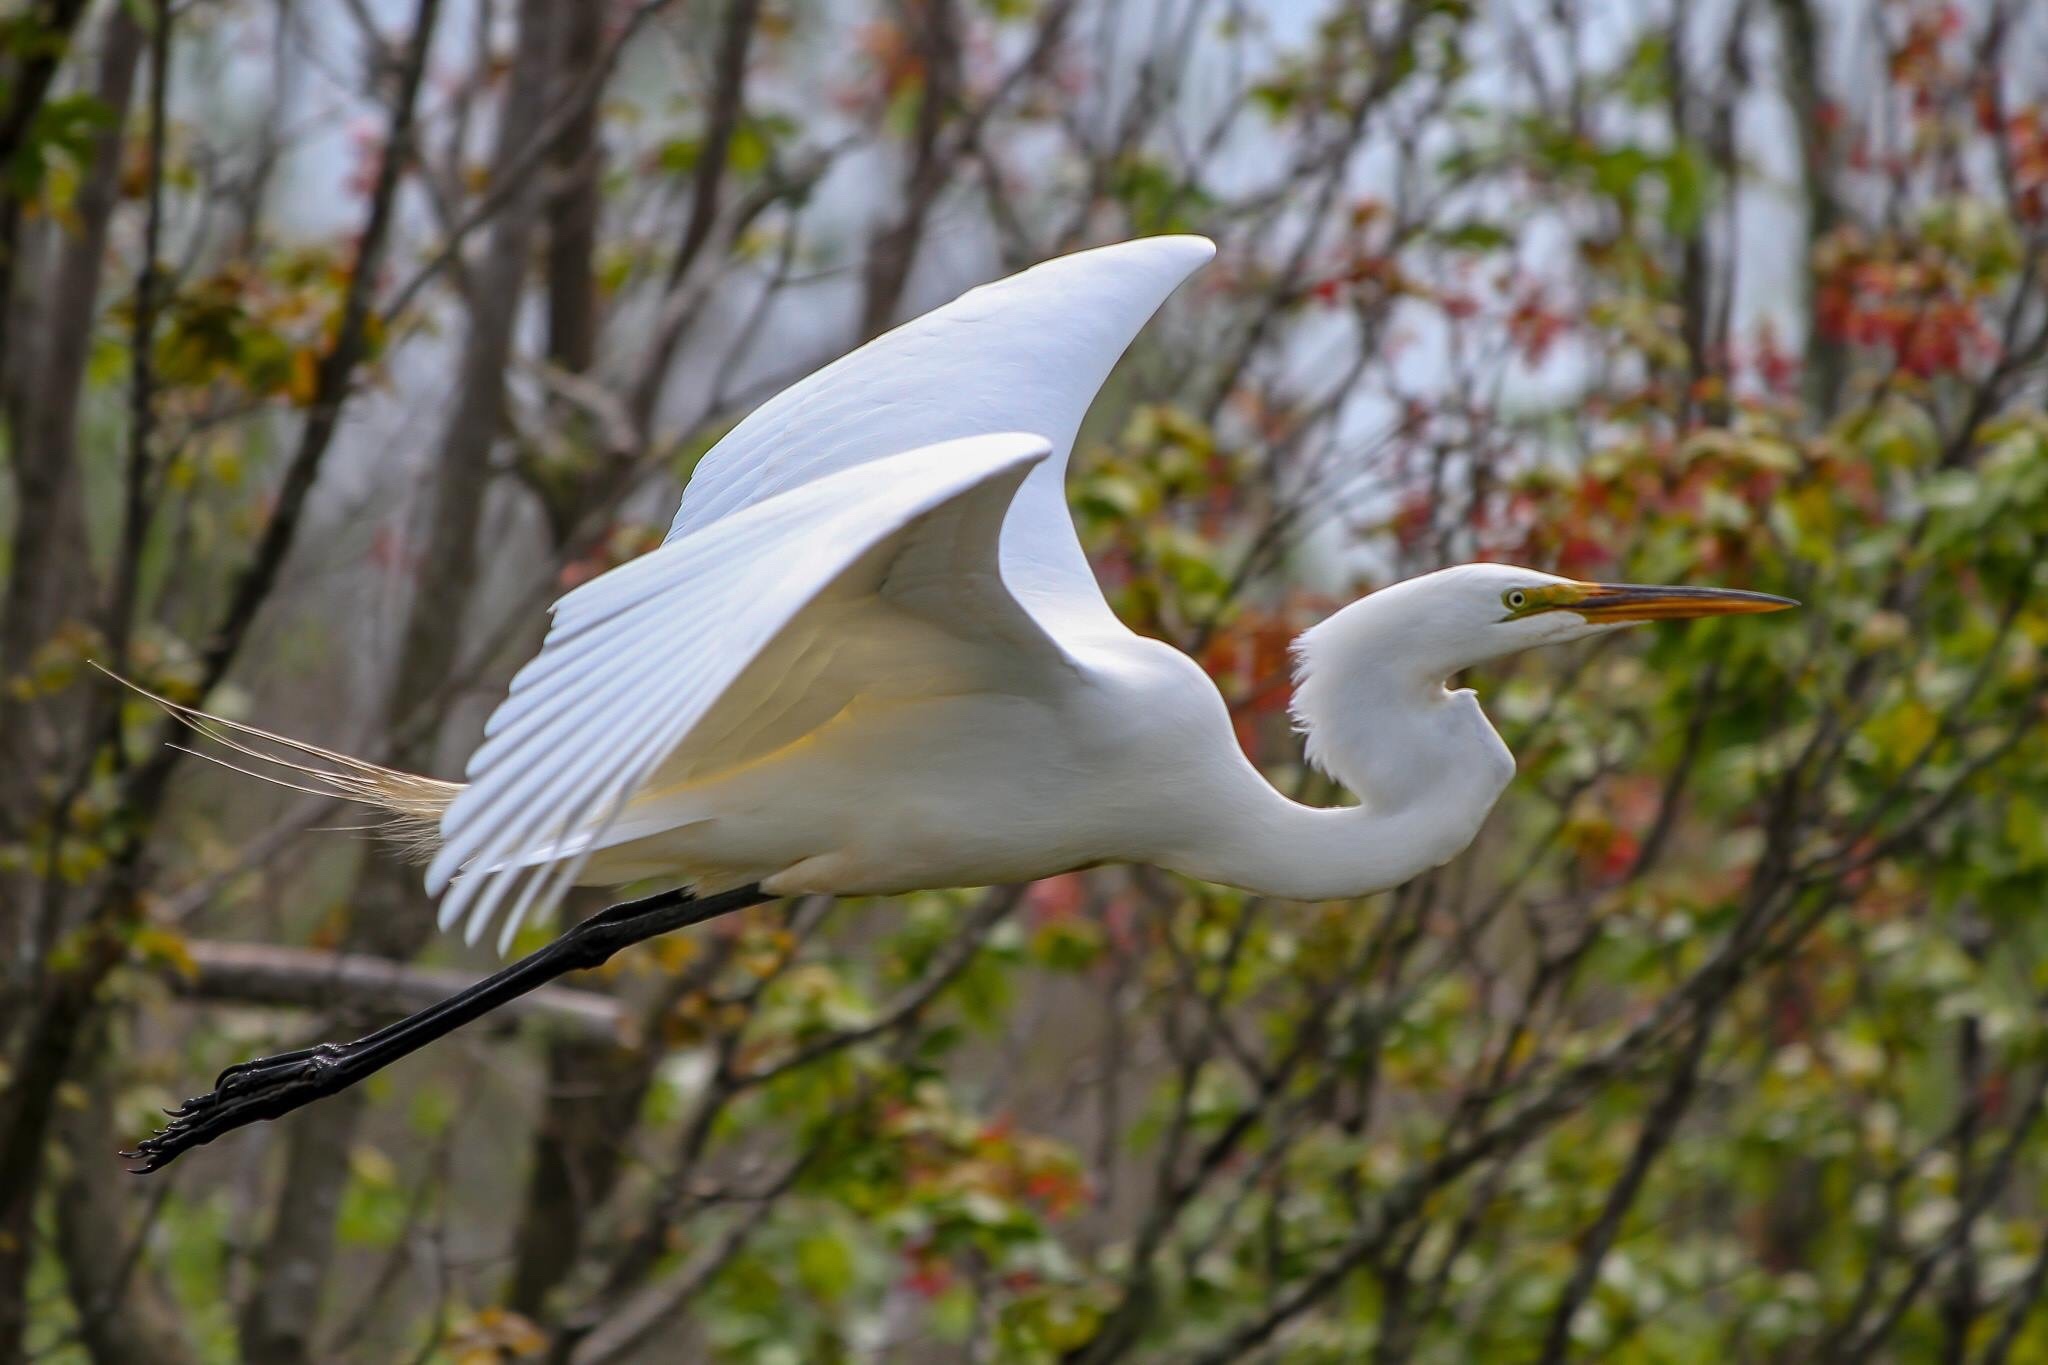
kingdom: Animalia
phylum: Chordata
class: Aves
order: Pelecaniformes
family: Ardeidae
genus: Ardea
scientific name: Ardea alba
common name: Great egret
